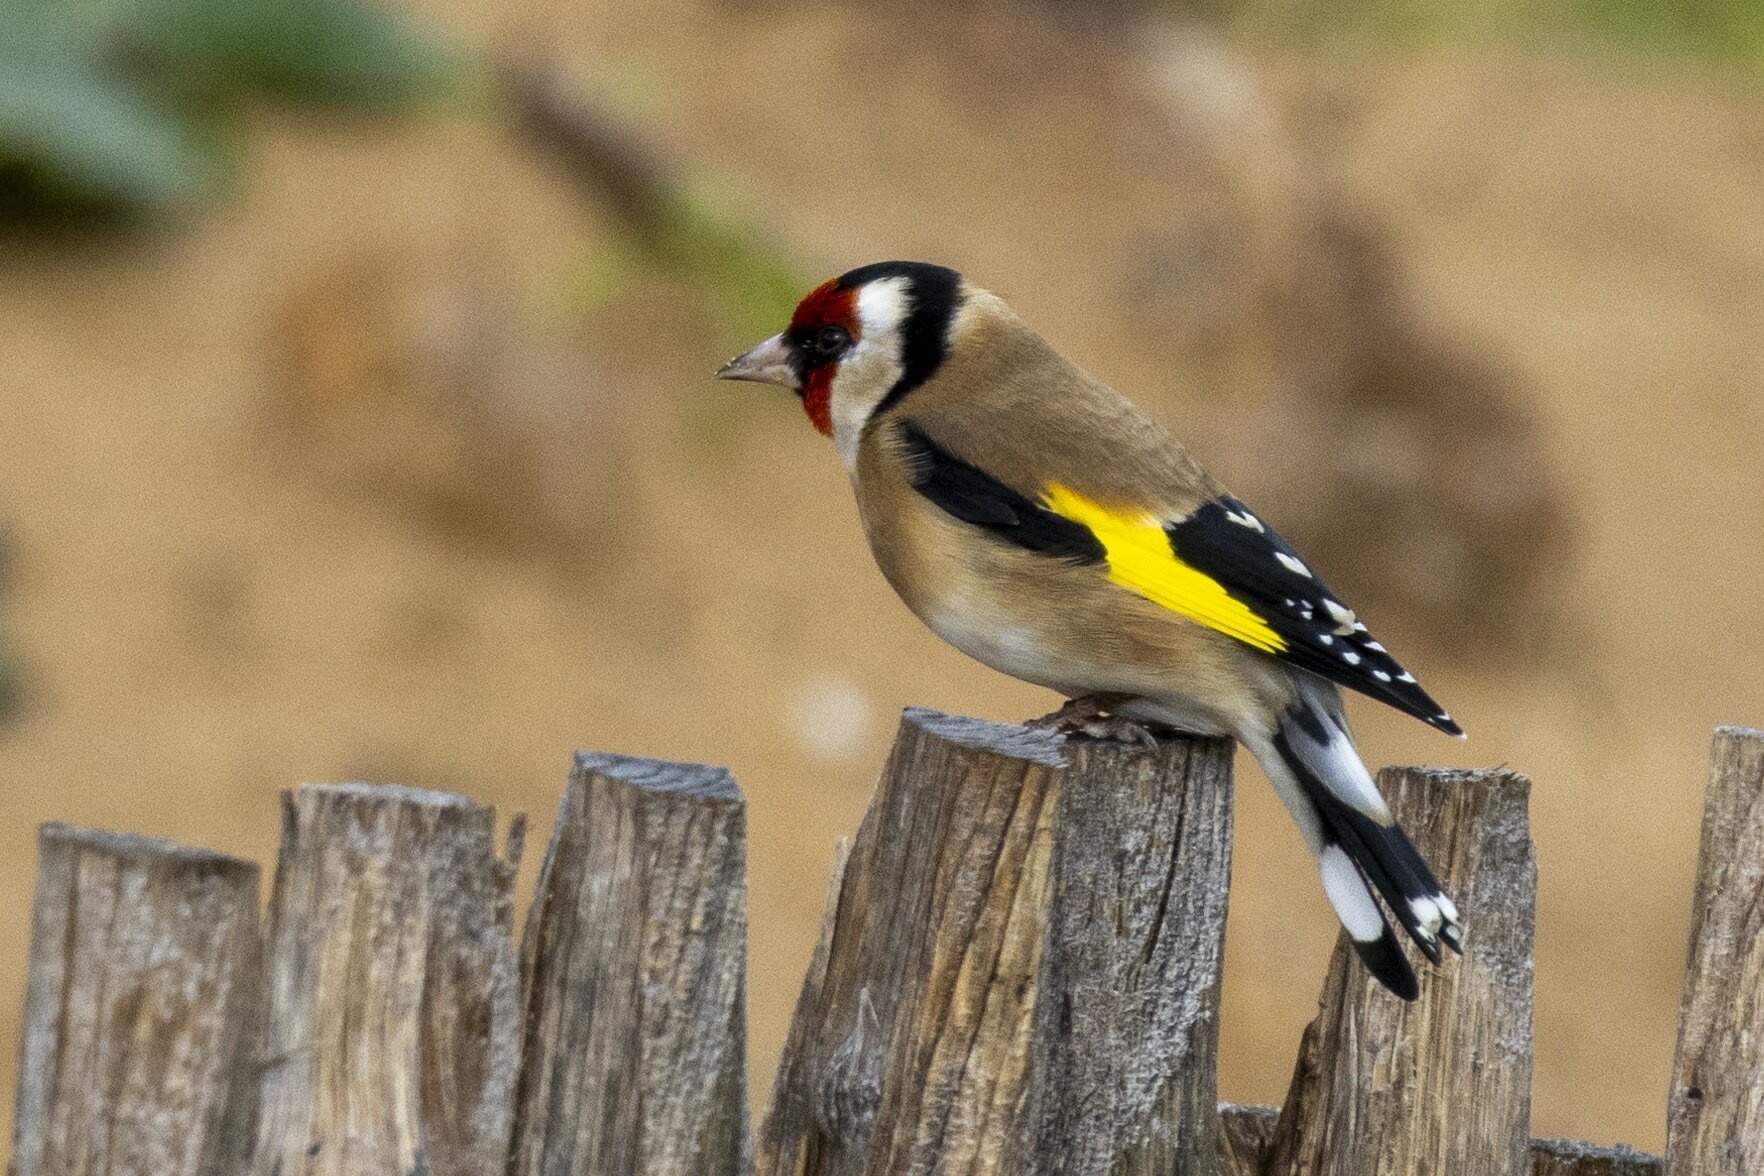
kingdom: Animalia
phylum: Chordata
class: Aves
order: Passeriformes
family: Fringillidae
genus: Carduelis
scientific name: Carduelis carduelis
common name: European goldfinch
